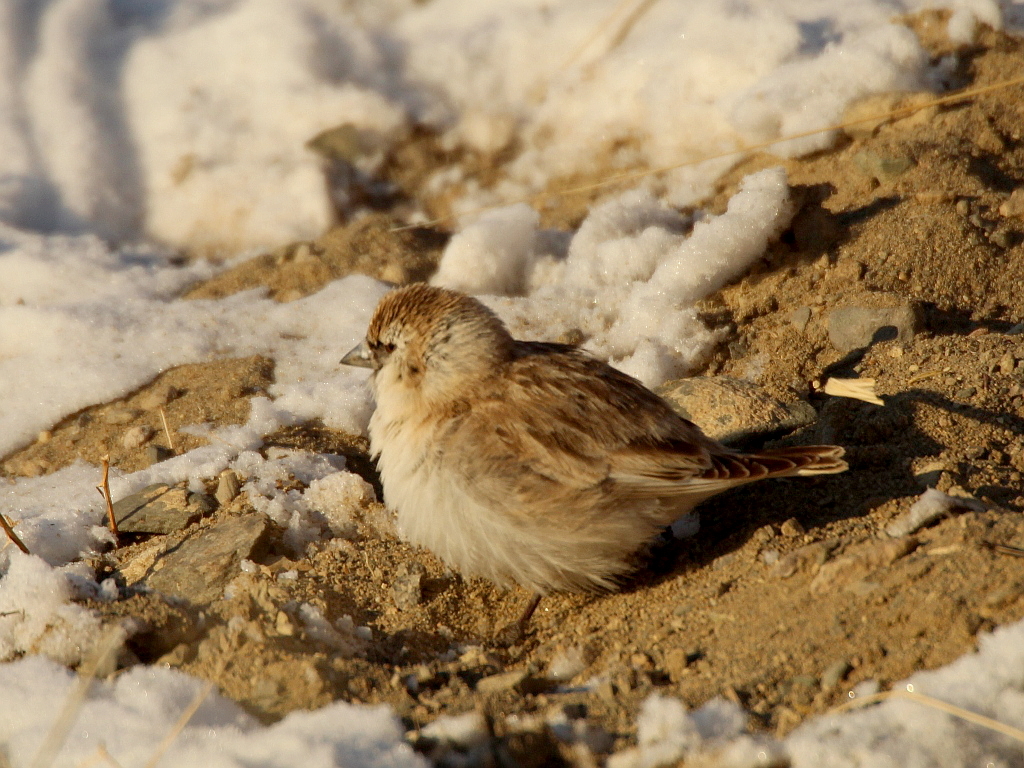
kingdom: Animalia
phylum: Chordata
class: Aves
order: Passeriformes
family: Passeridae
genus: Pyrgilauda
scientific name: Pyrgilauda davidiana
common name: Pere david's snowfinch
